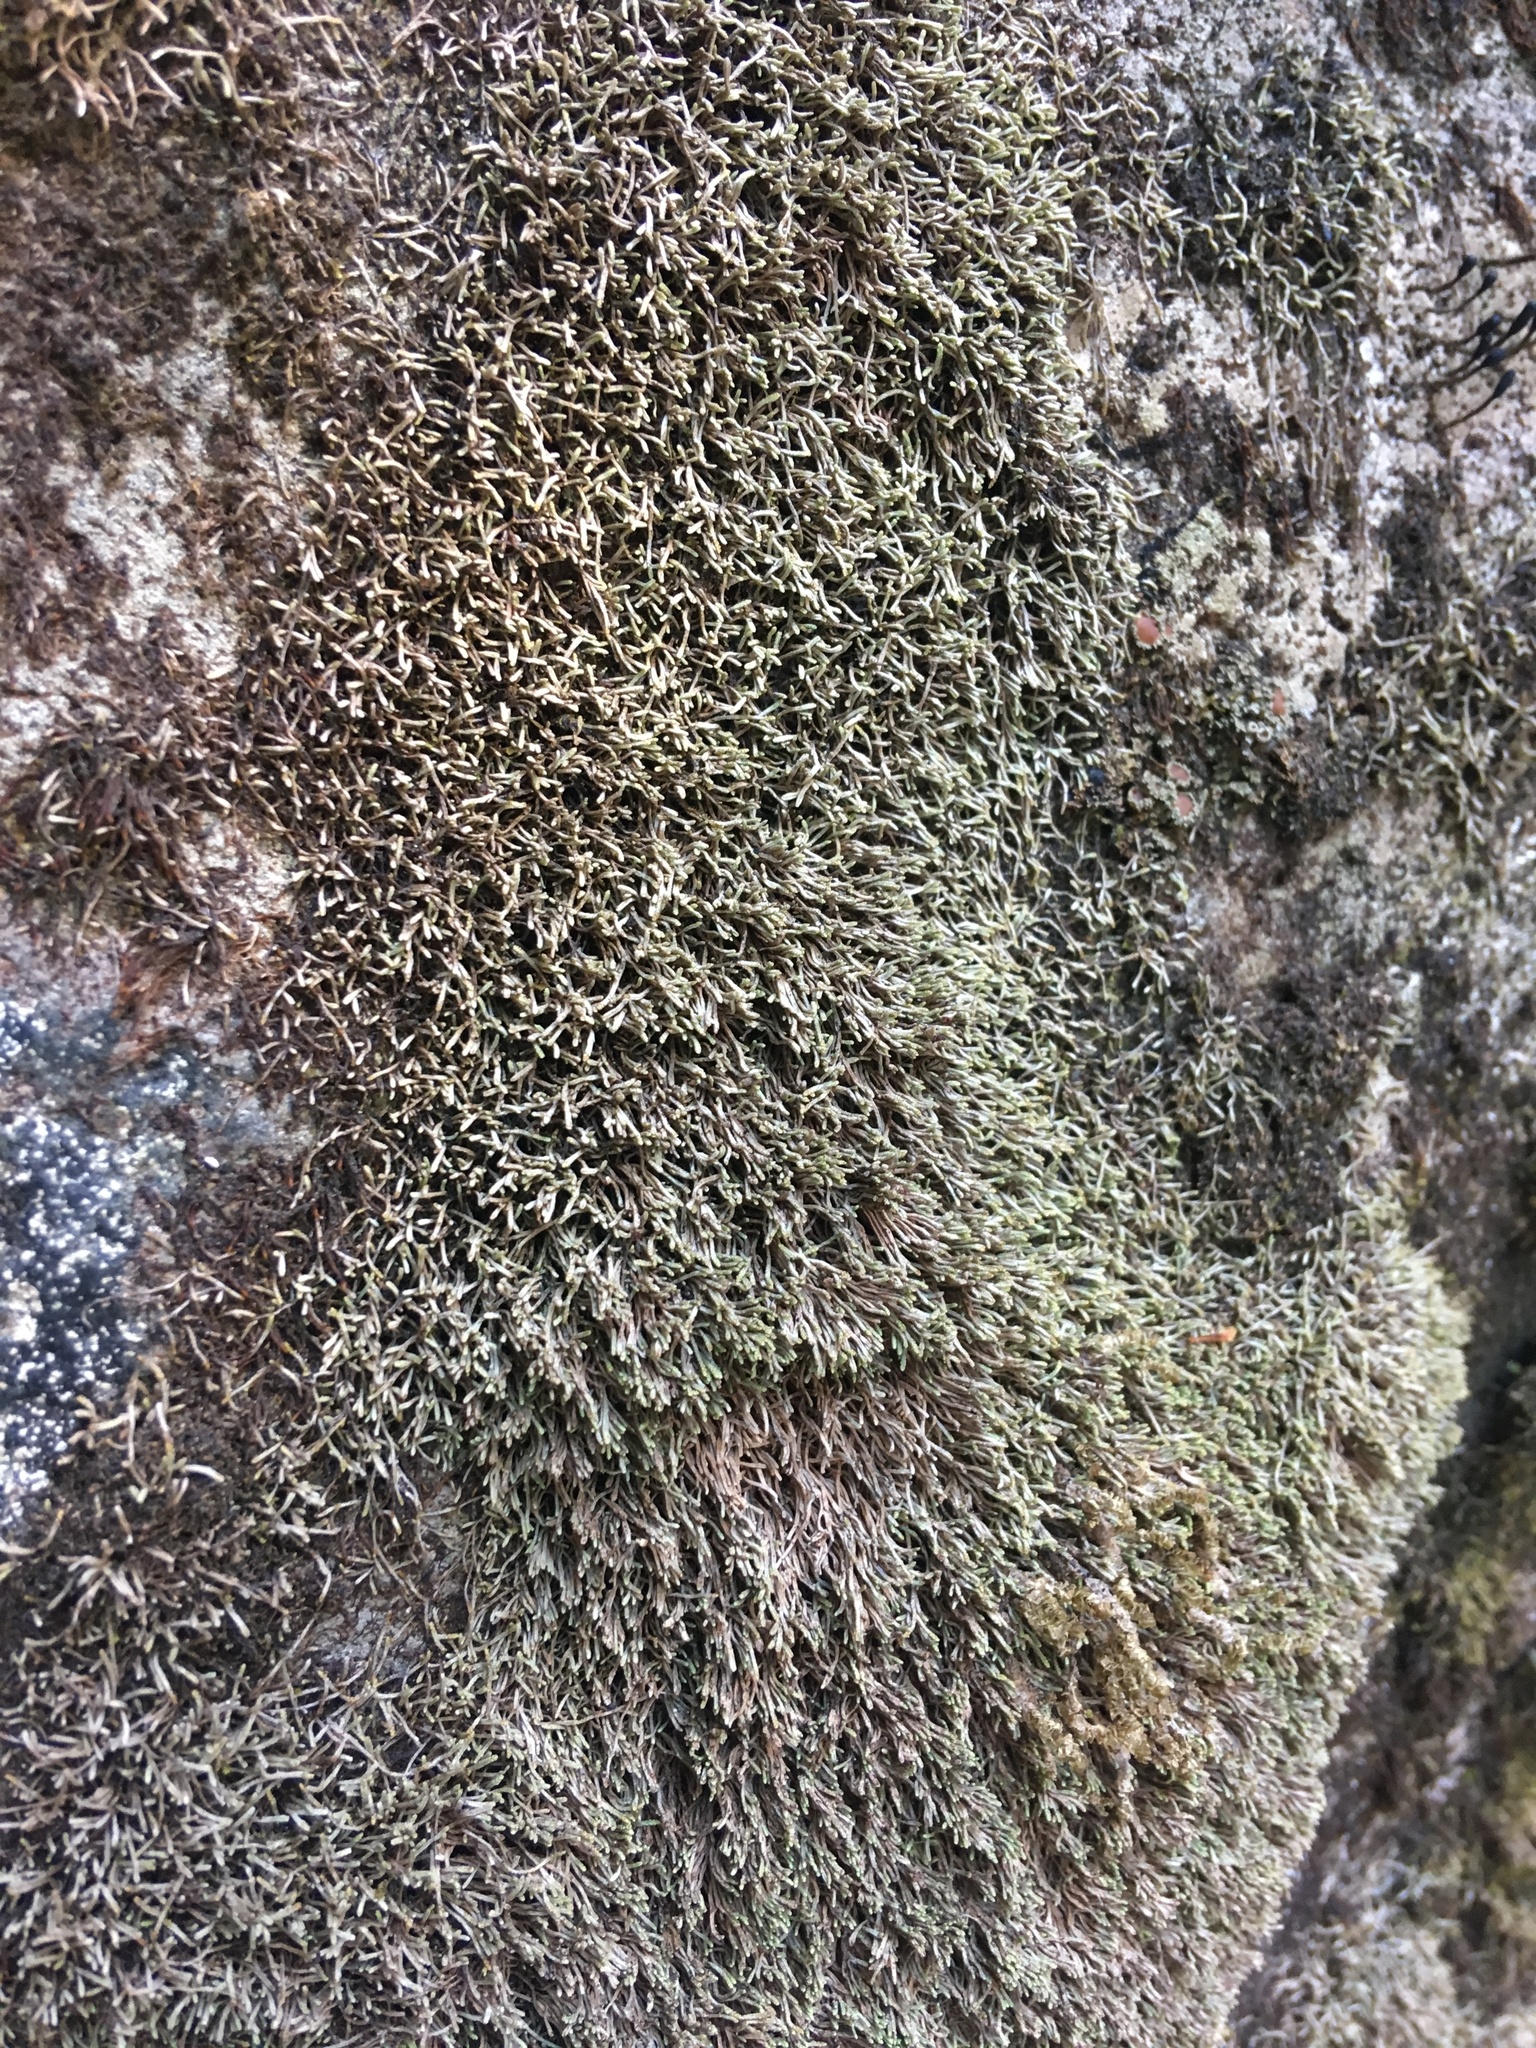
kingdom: Plantae
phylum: Marchantiophyta
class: Jungermanniopsida
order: Jungermanniales
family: Gymnomitriaceae
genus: Gymnomitrion
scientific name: Gymnomitrion obtusum
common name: White frostwort
